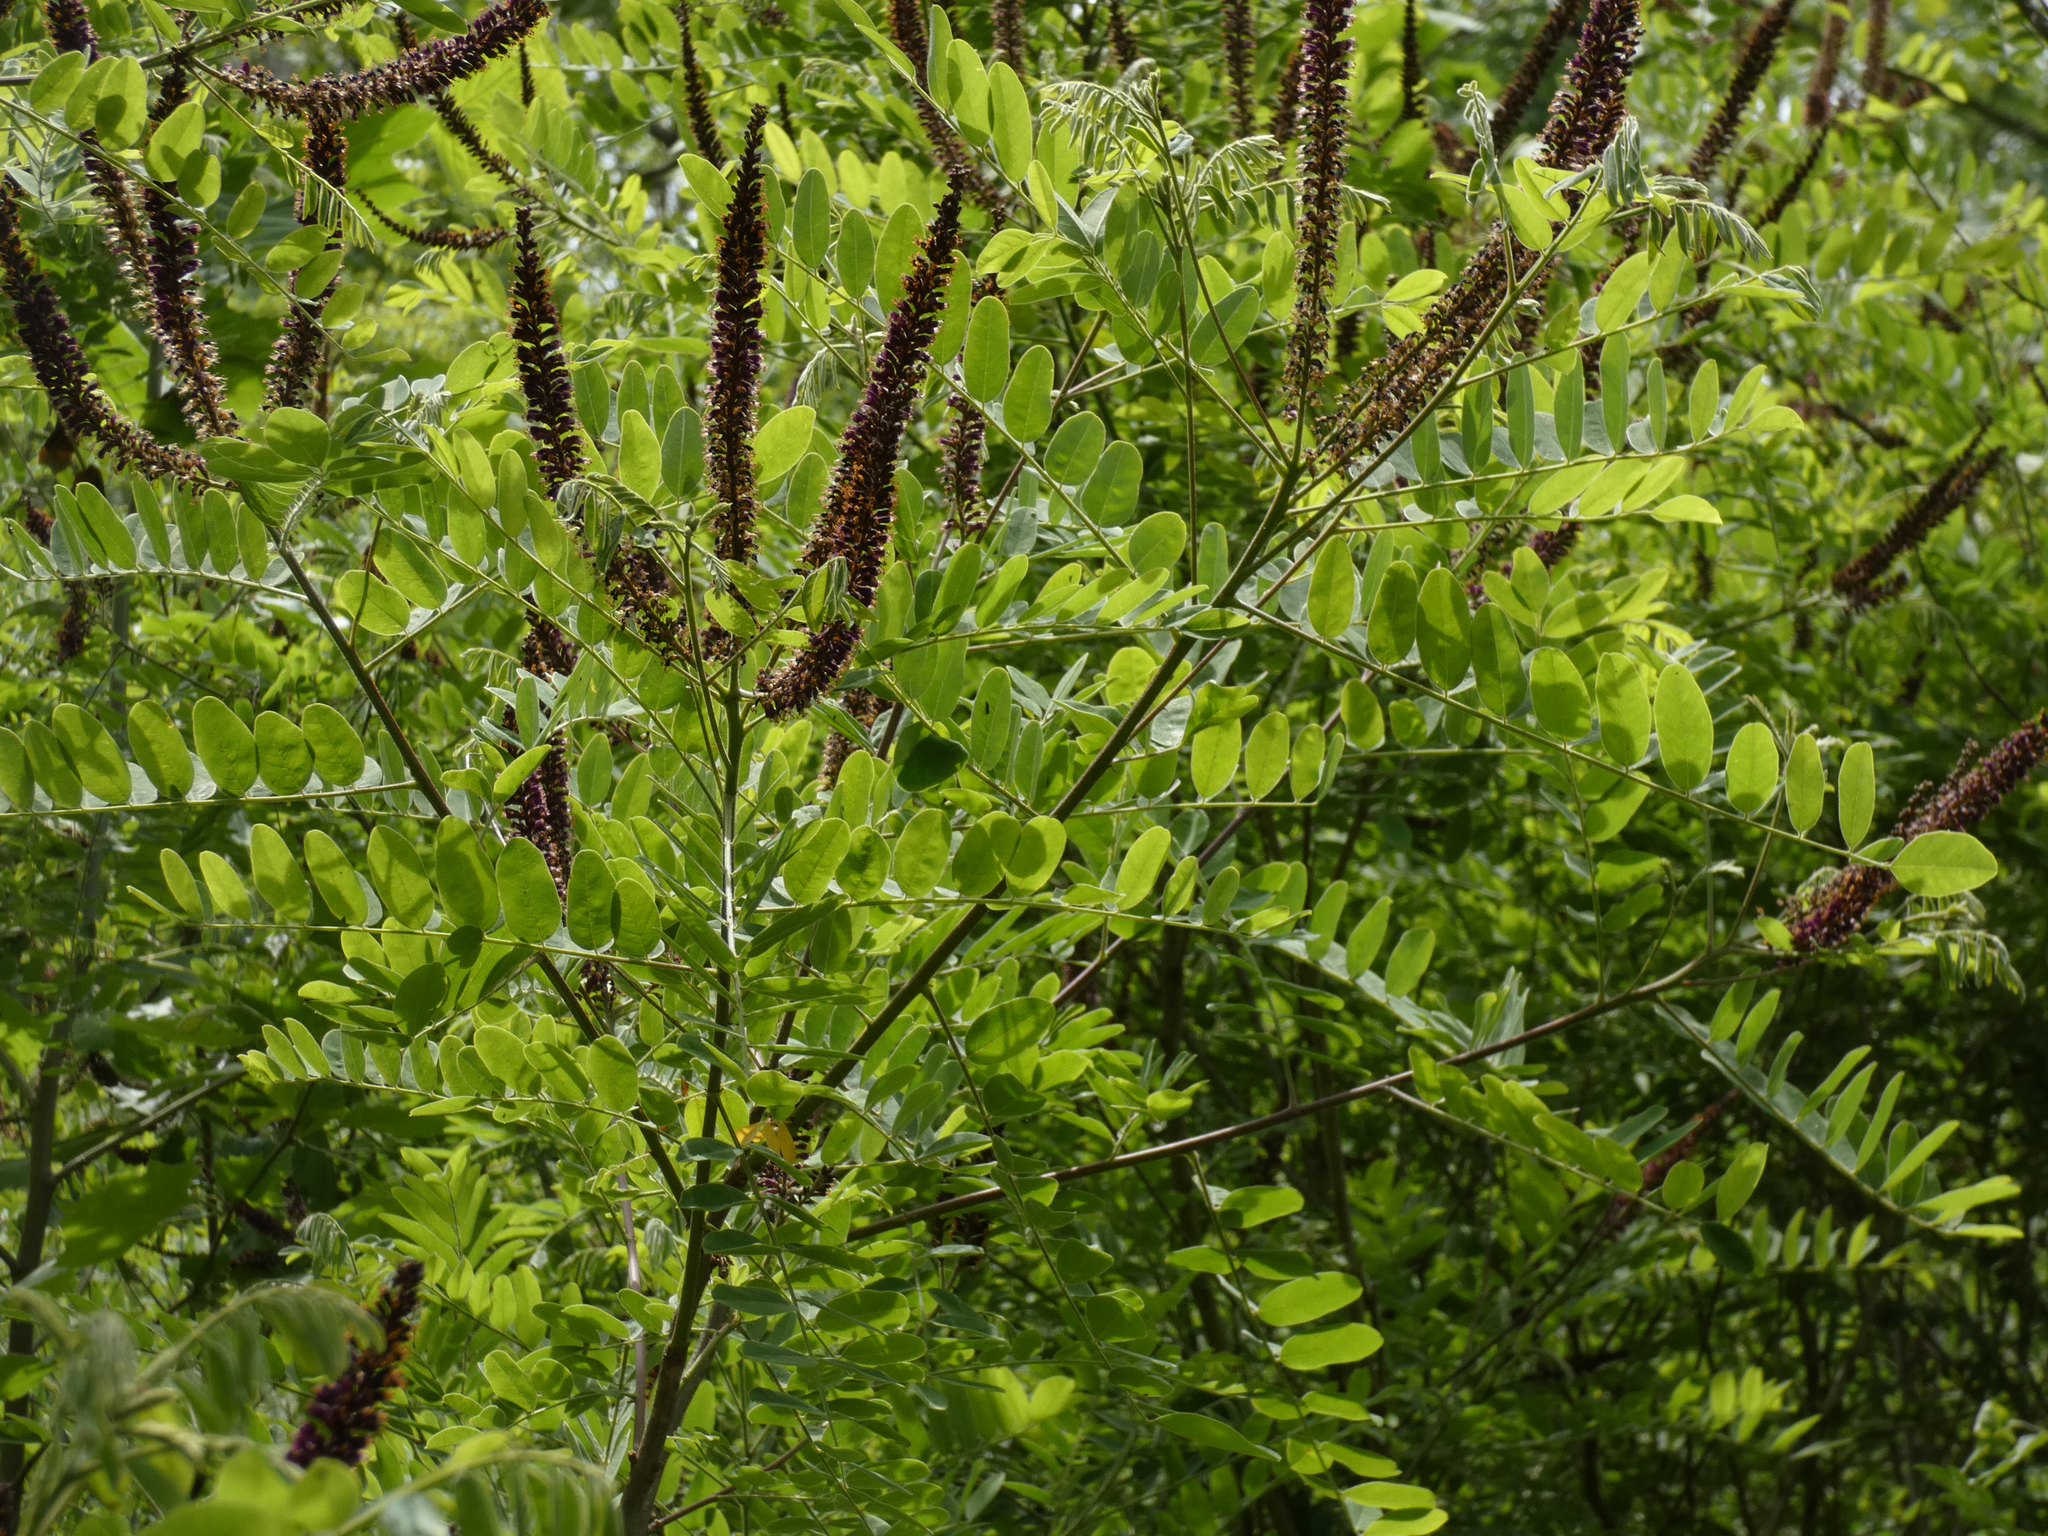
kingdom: Plantae
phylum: Tracheophyta
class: Magnoliopsida
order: Fabales
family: Fabaceae
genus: Amorpha
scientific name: Amorpha fruticosa
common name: False indigo
